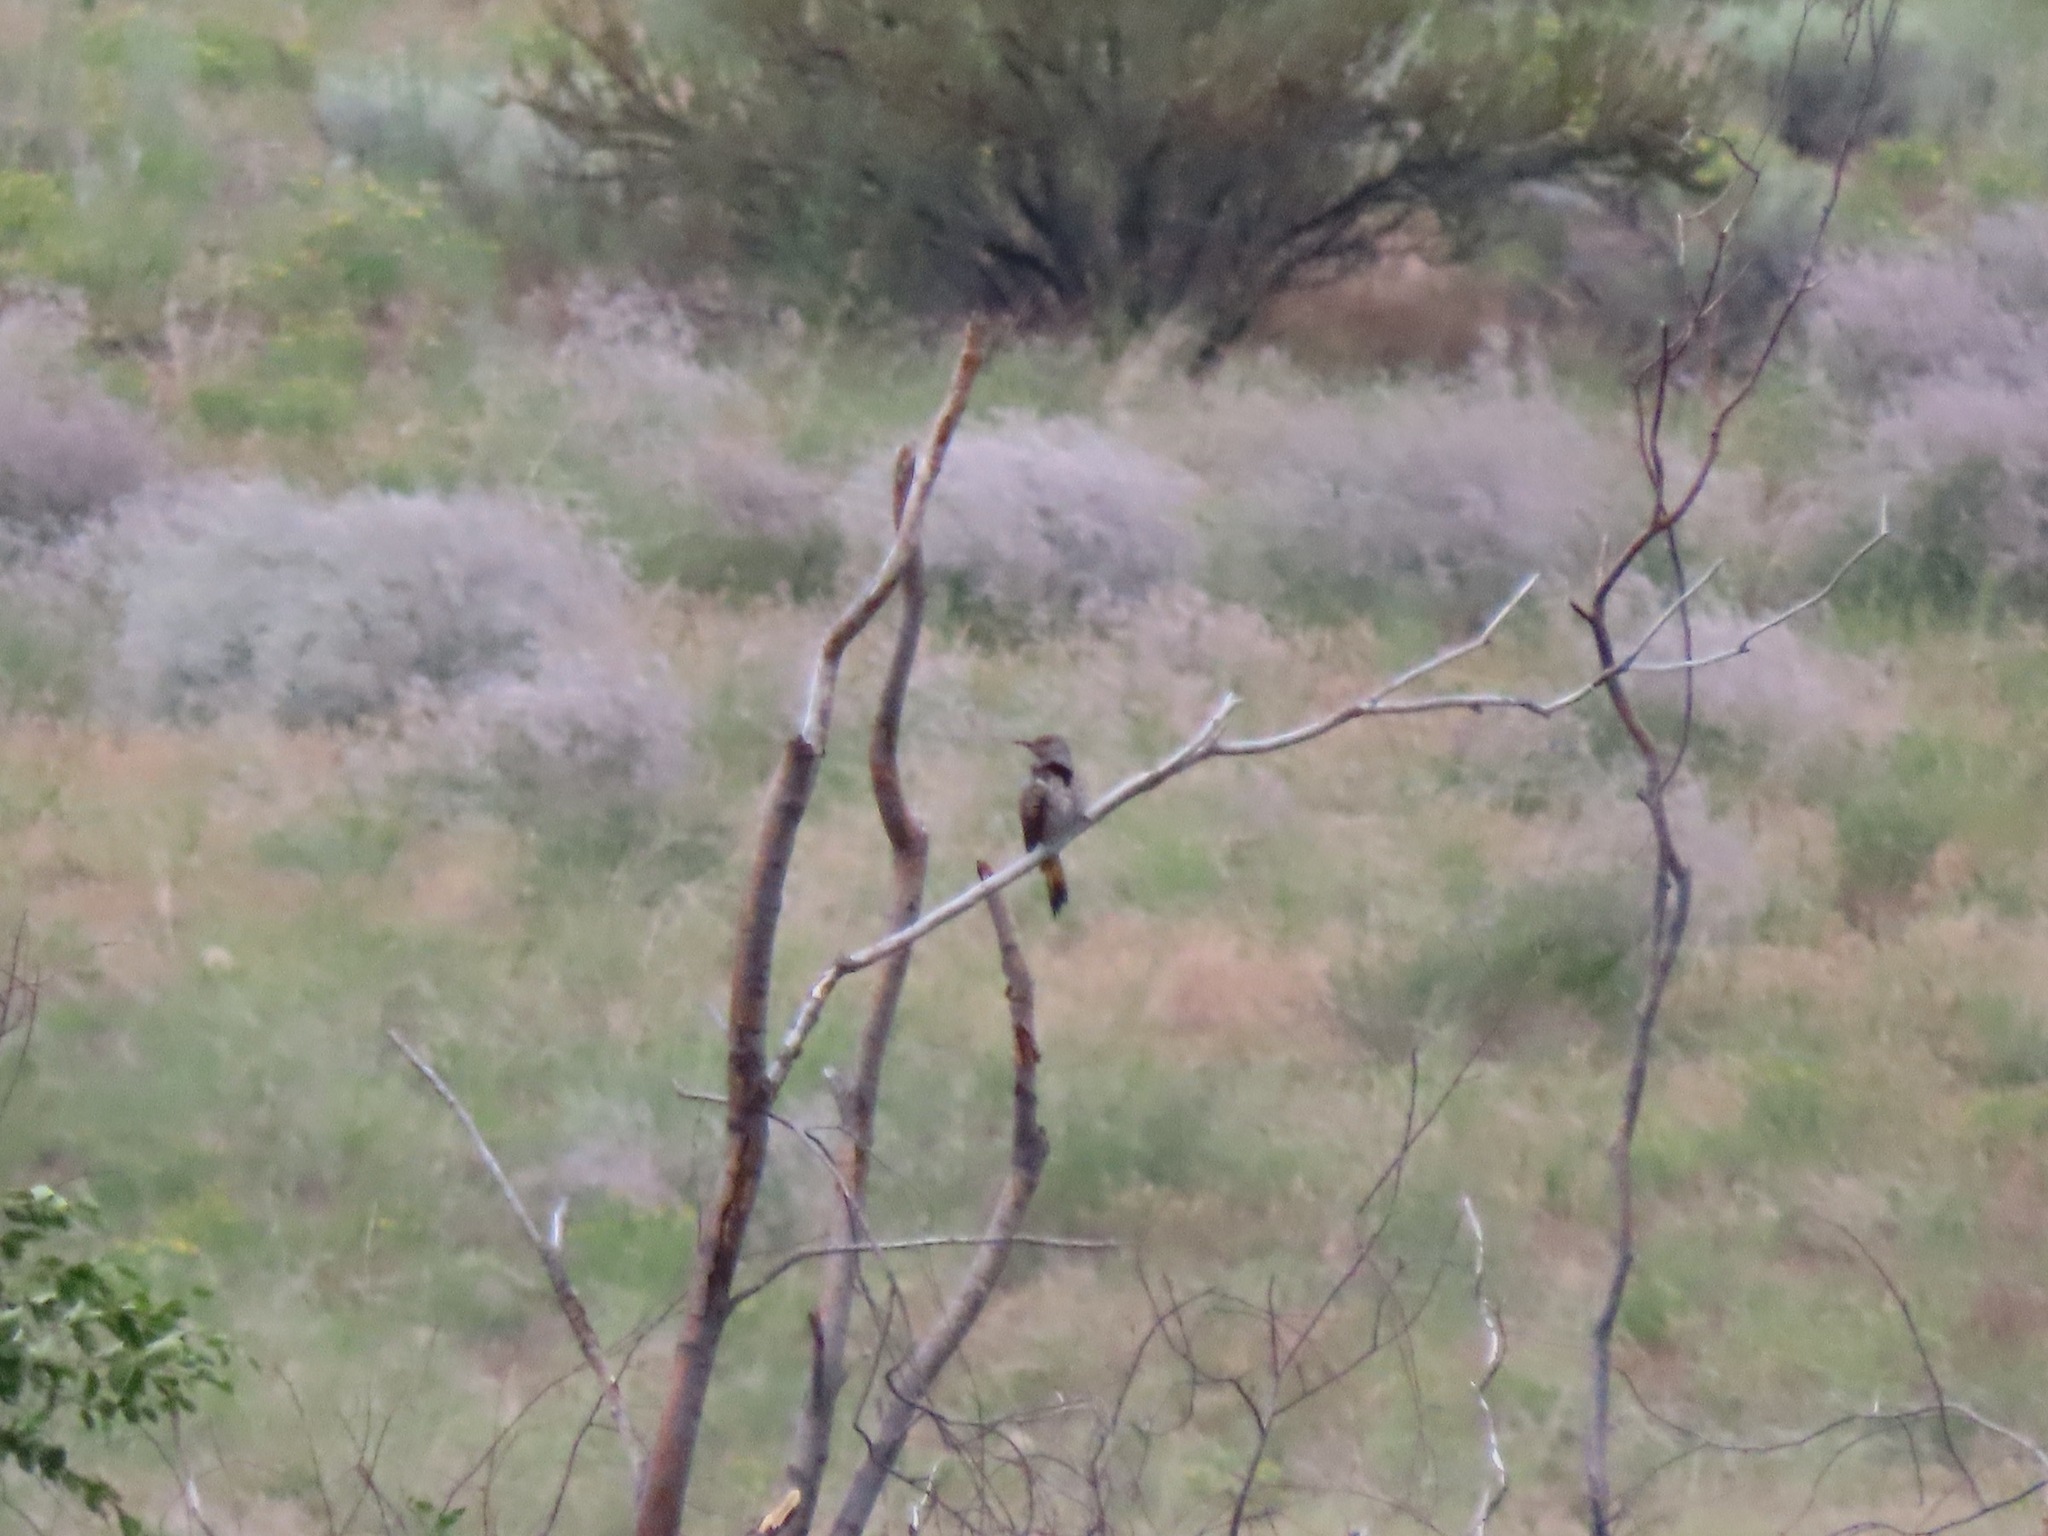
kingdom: Animalia
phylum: Chordata
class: Aves
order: Piciformes
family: Picidae
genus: Colaptes
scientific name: Colaptes auratus
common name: Northern flicker
